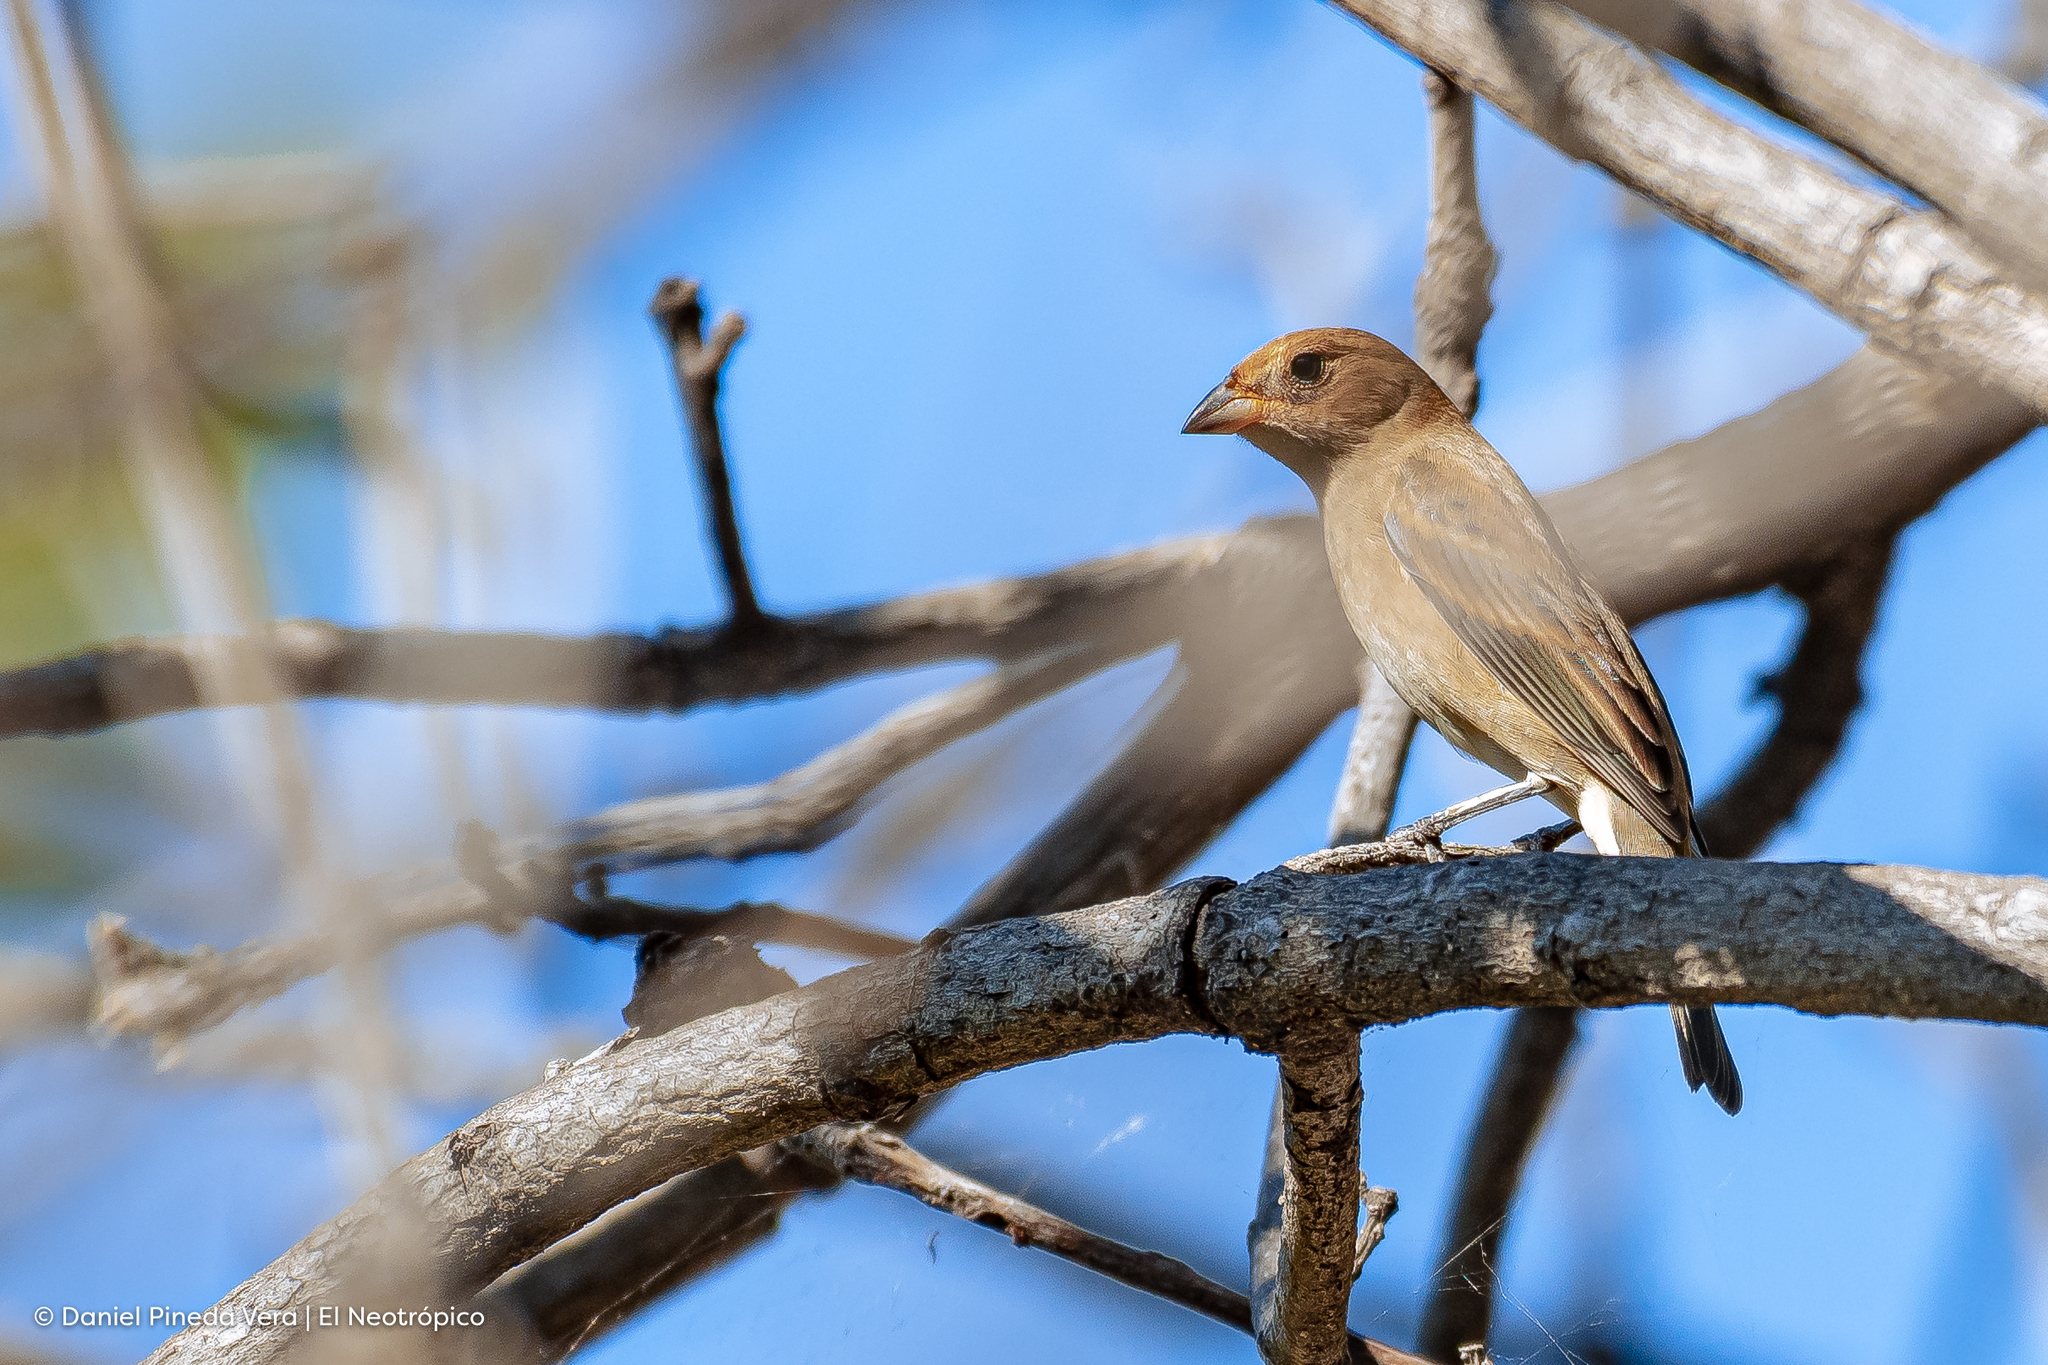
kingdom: Animalia
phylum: Chordata
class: Aves
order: Passeriformes
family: Cardinalidae
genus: Passerina
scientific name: Passerina cyanea
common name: Indigo bunting
